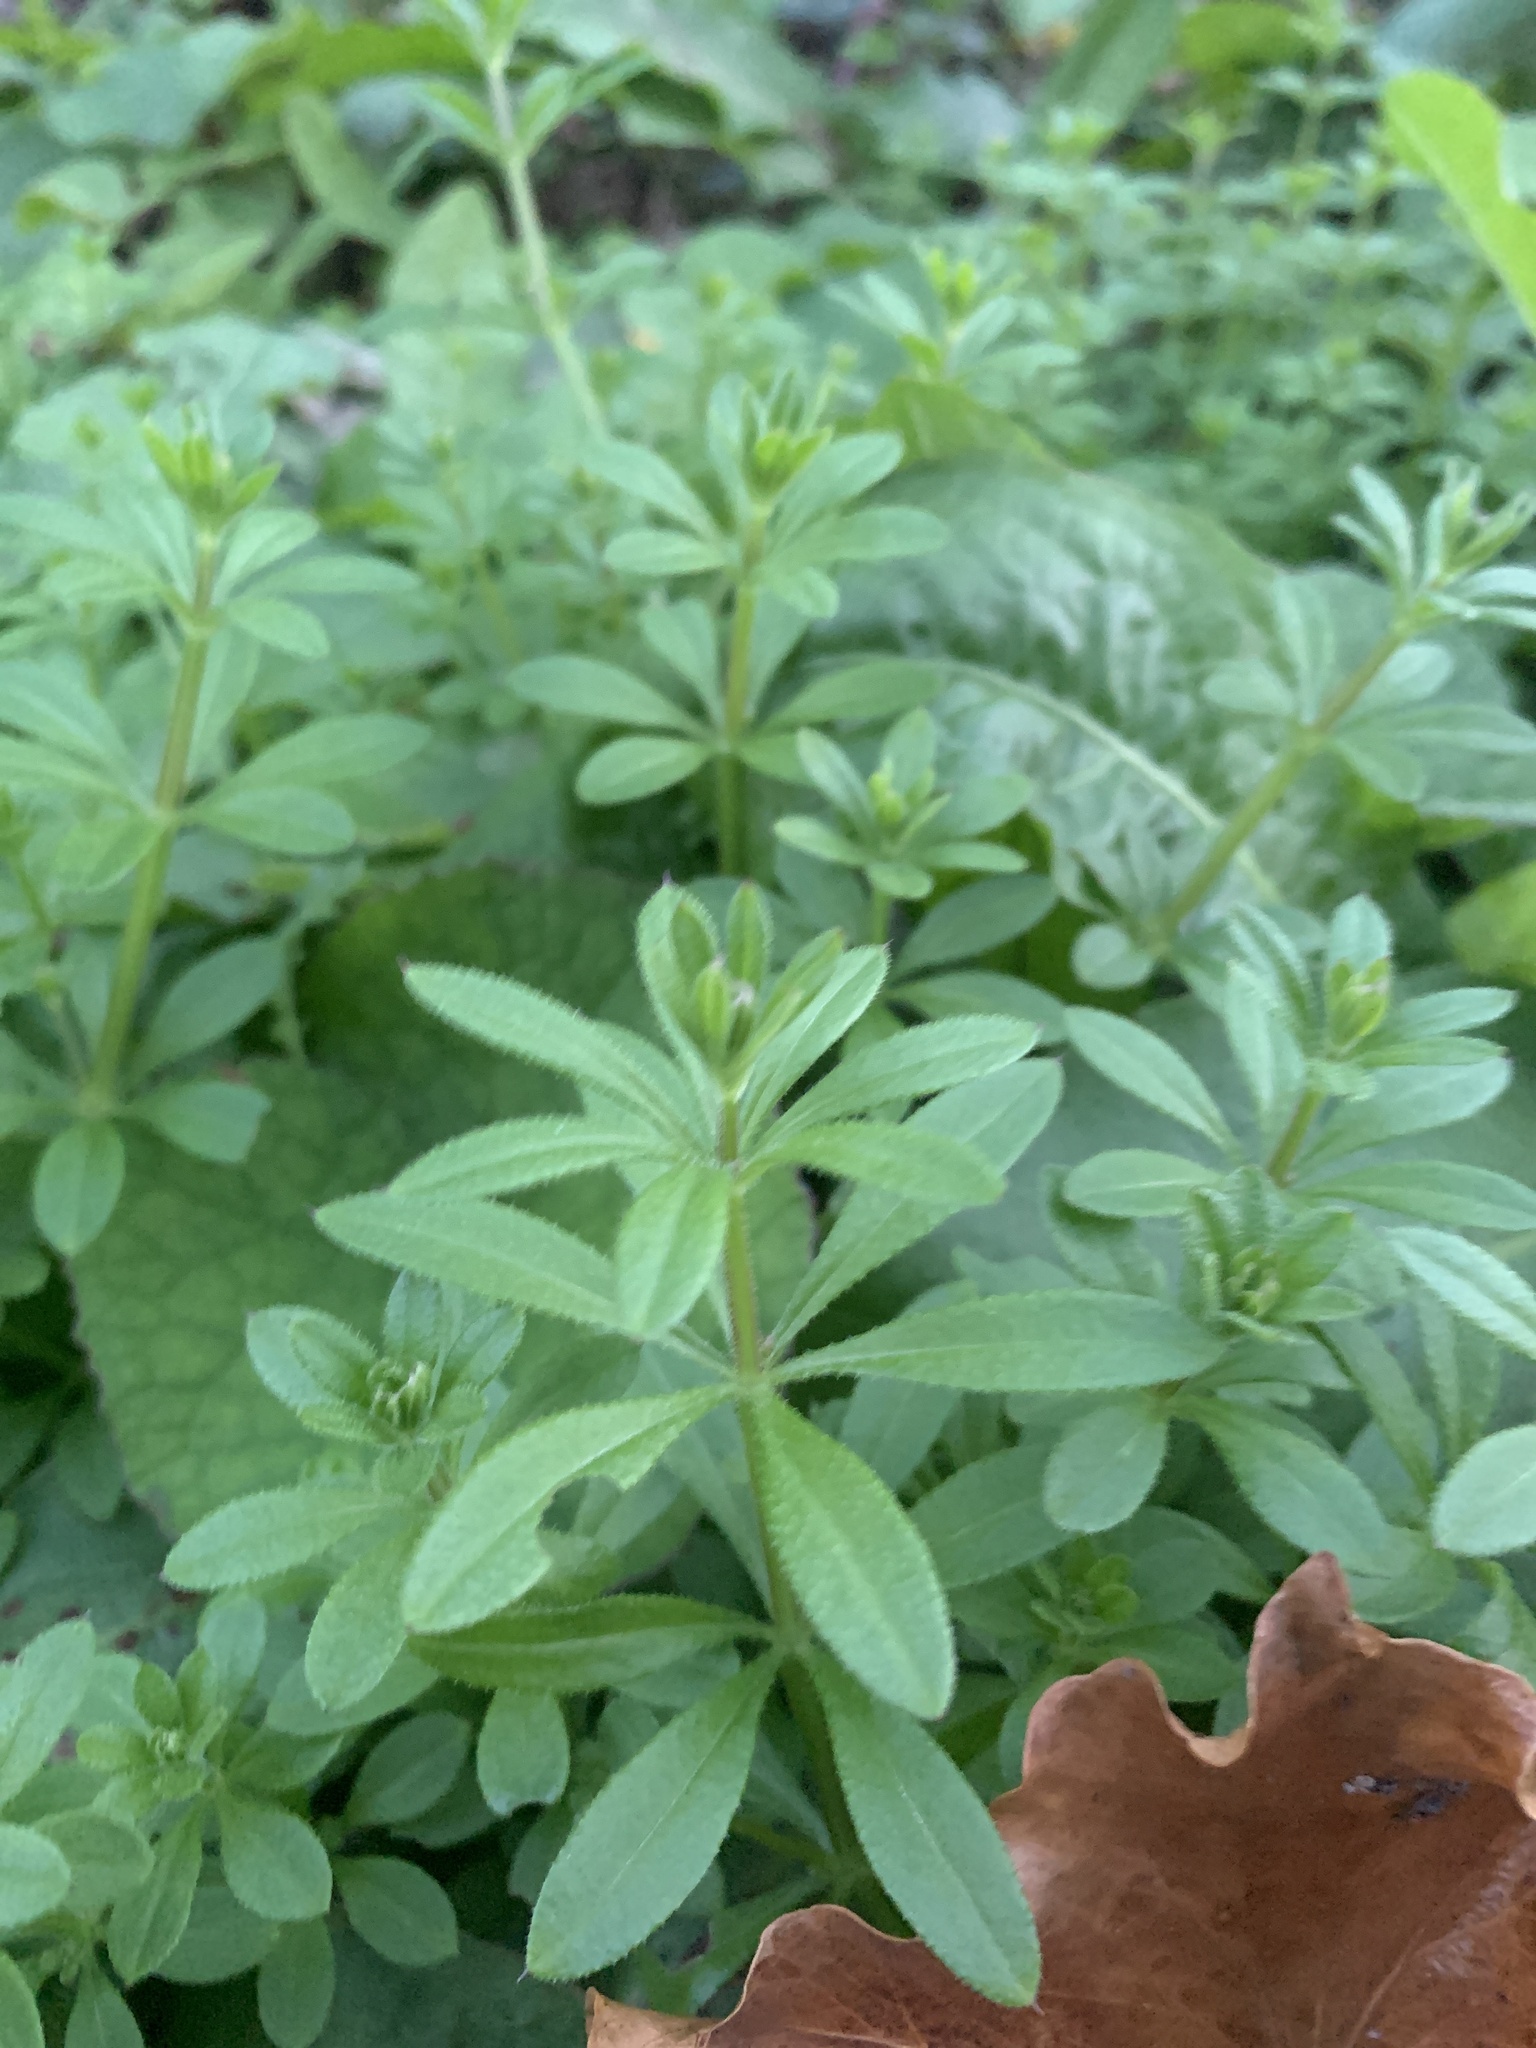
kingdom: Plantae
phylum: Tracheophyta
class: Magnoliopsida
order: Gentianales
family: Rubiaceae
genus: Galium
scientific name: Galium aparine
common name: Cleavers
